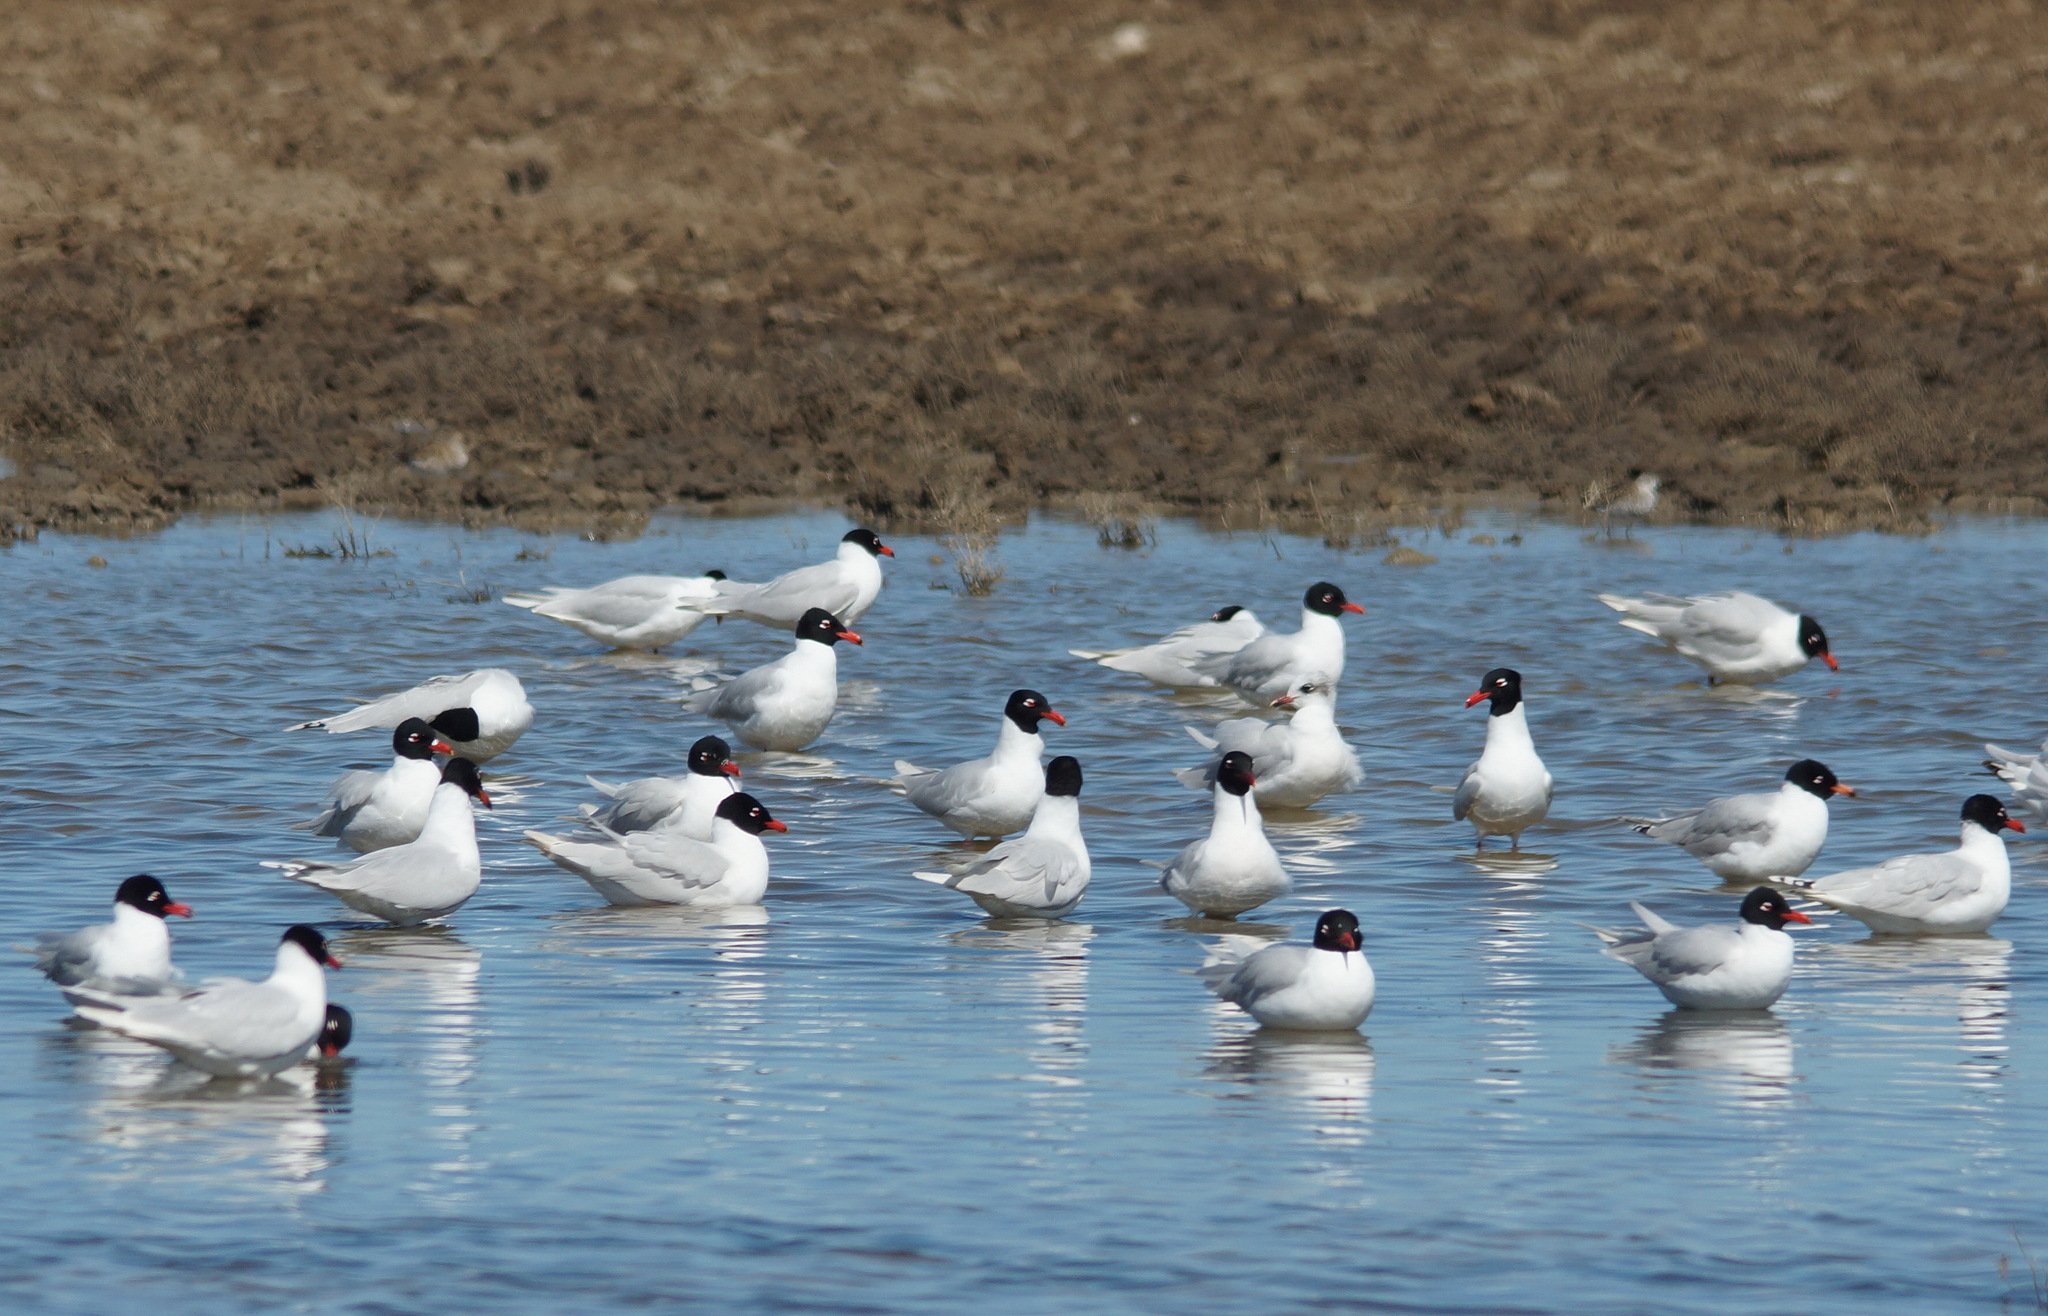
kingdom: Animalia
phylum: Chordata
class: Aves
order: Charadriiformes
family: Laridae
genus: Ichthyaetus
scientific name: Ichthyaetus melanocephalus
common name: Mediterranean gull
